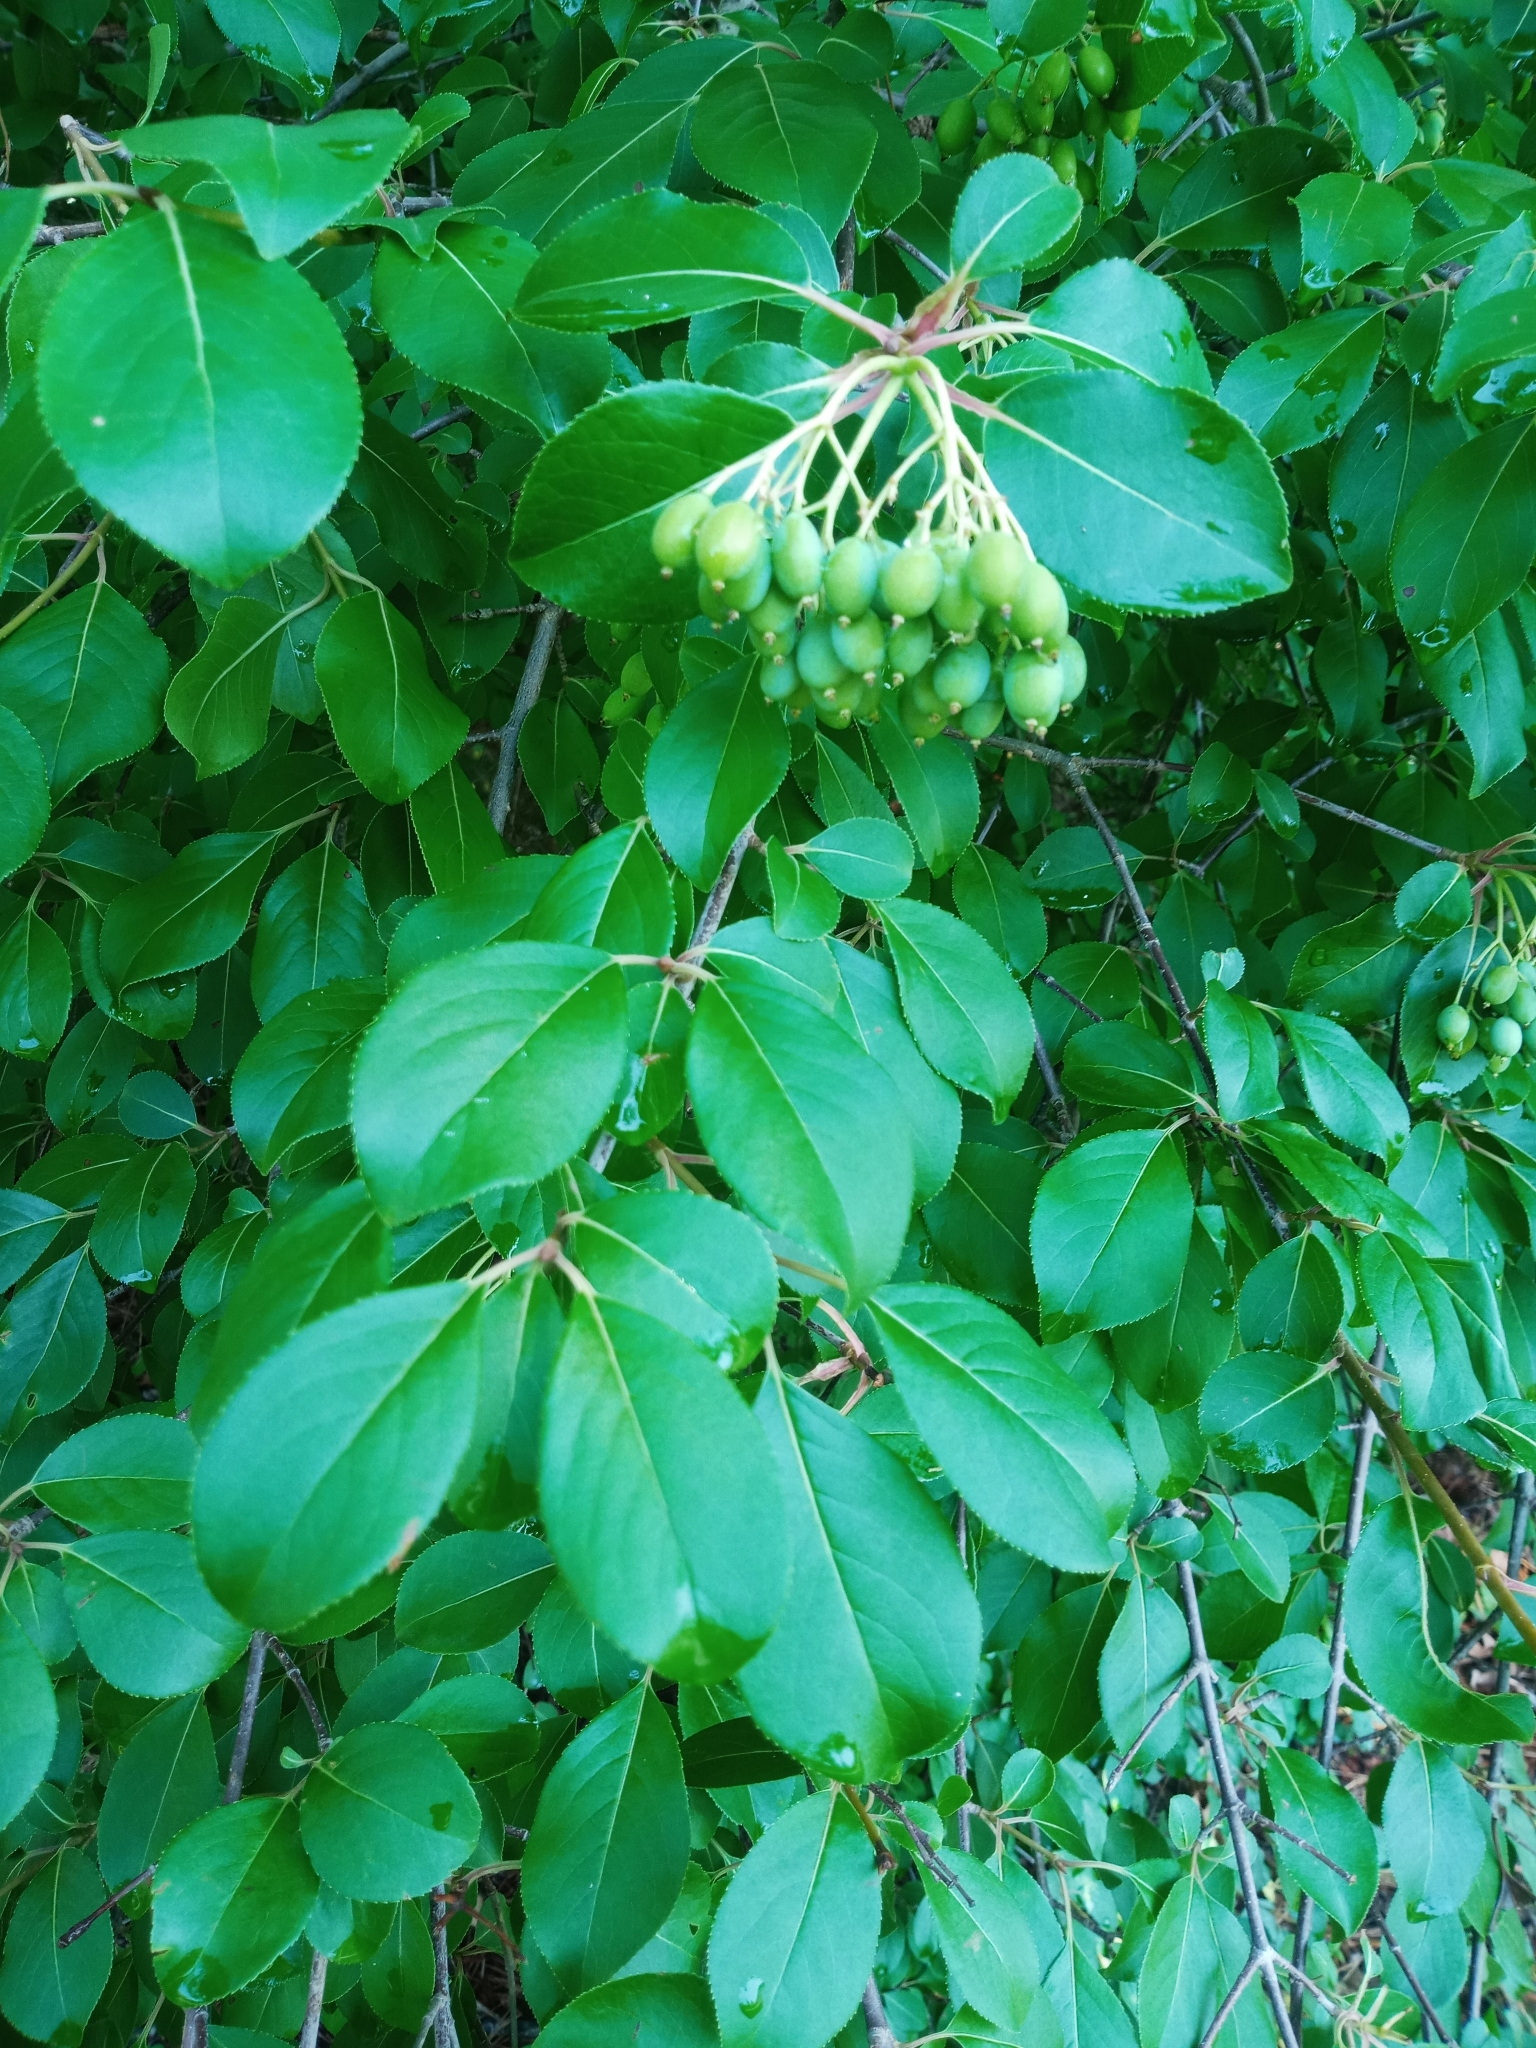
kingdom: Plantae
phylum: Tracheophyta
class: Magnoliopsida
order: Dipsacales
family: Viburnaceae
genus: Viburnum
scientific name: Viburnum prunifolium
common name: Black haw
